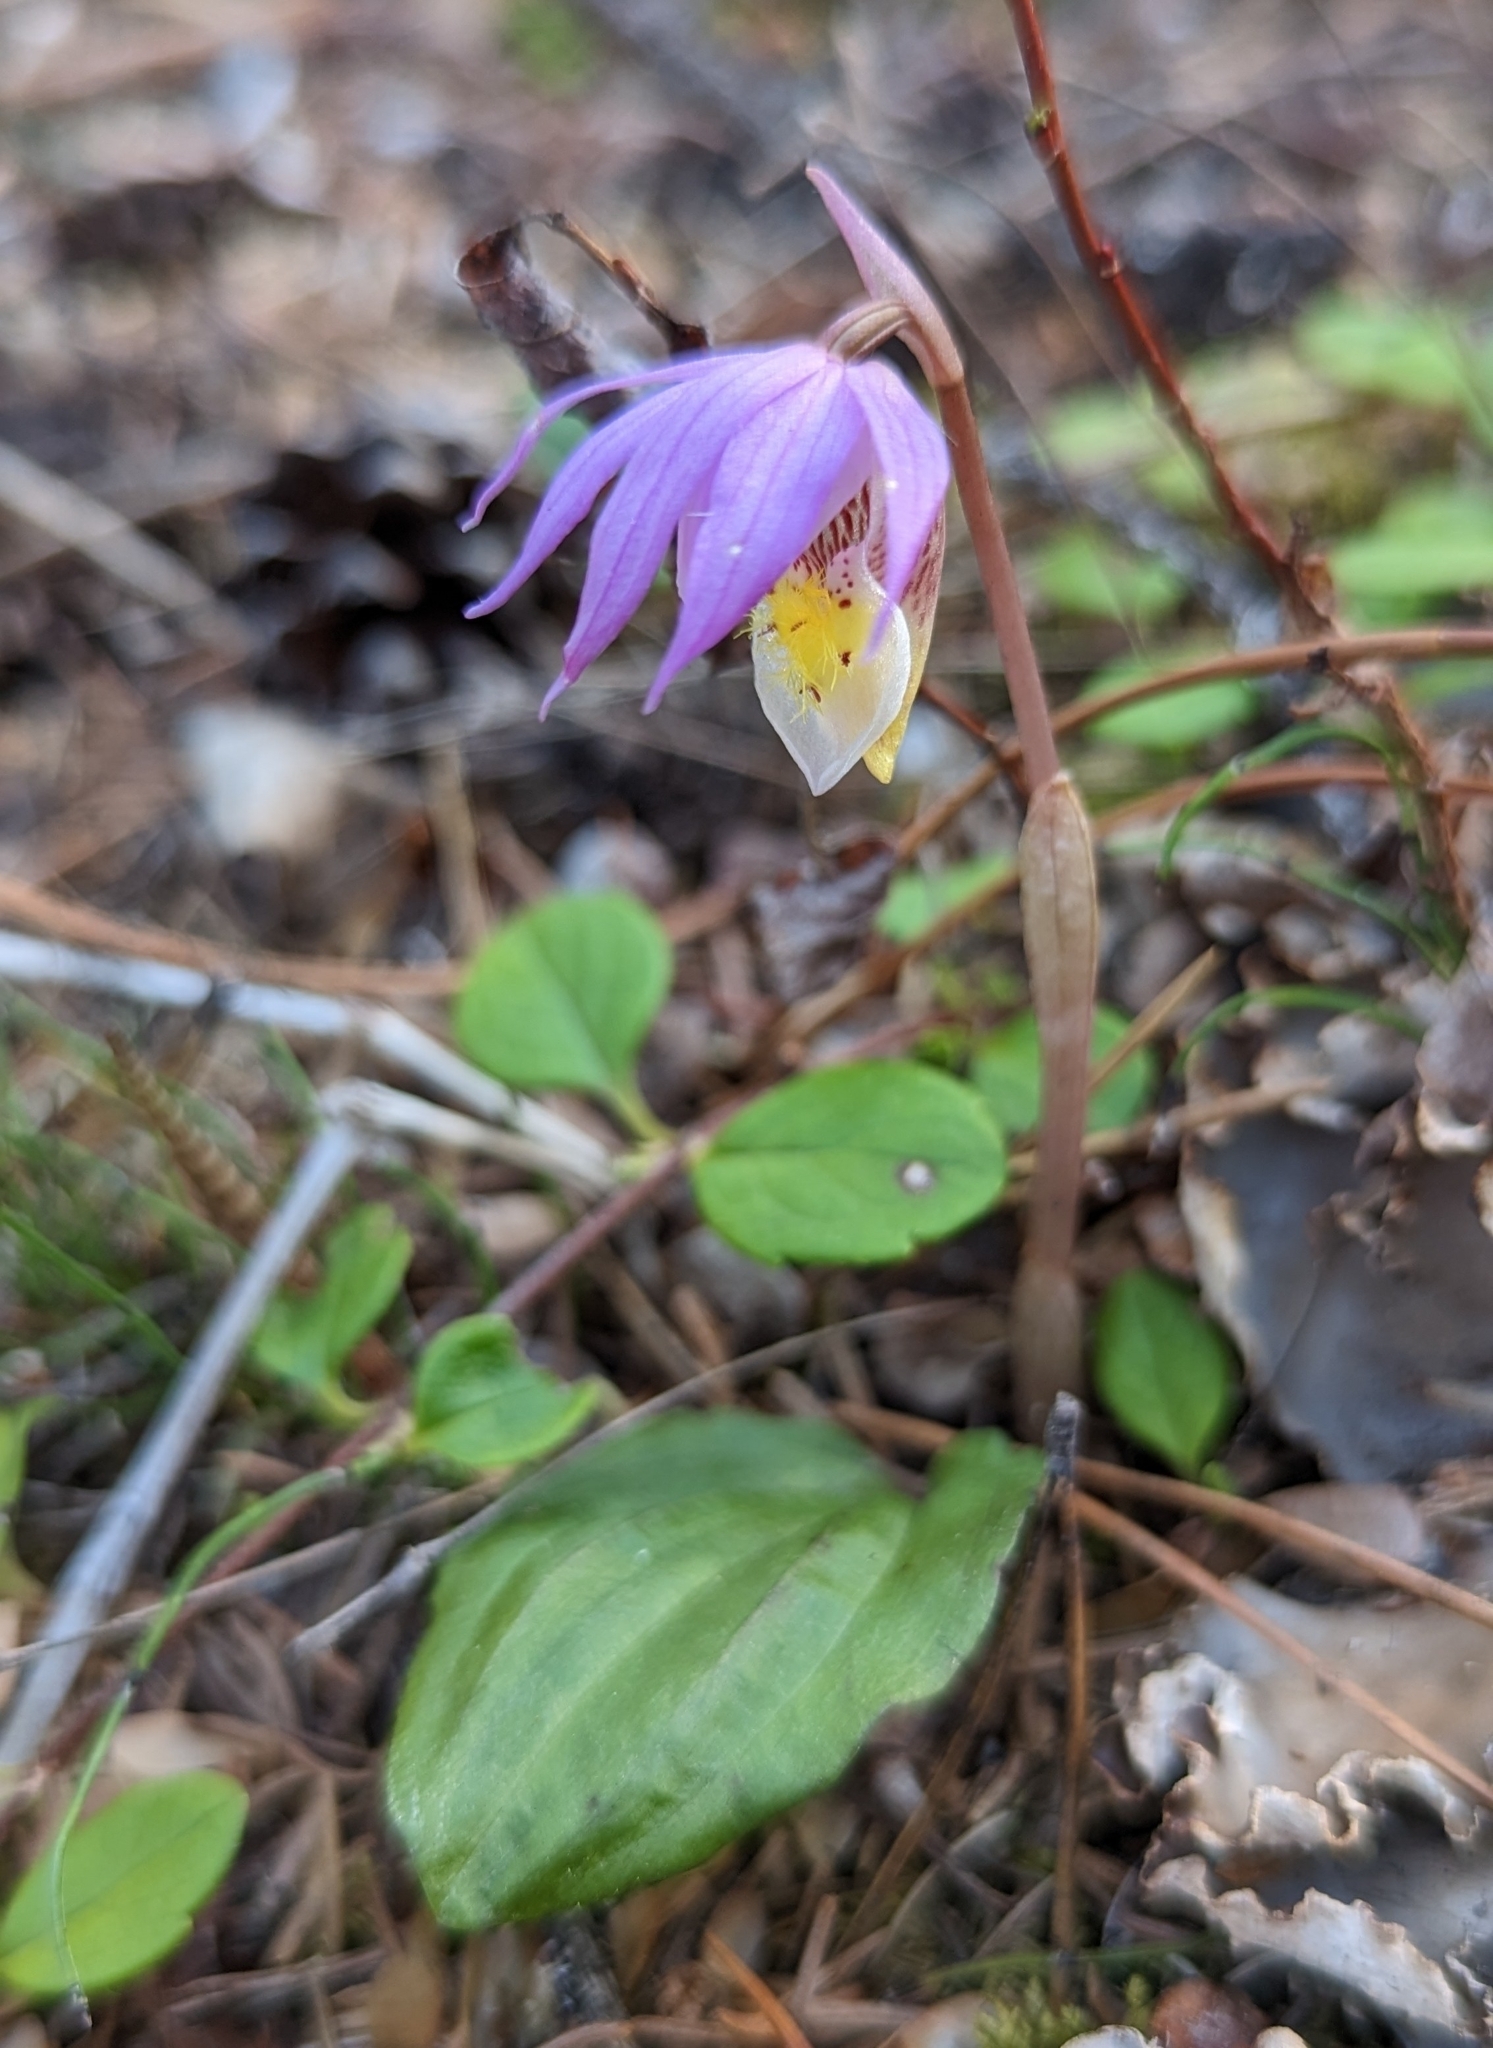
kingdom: Plantae
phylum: Tracheophyta
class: Liliopsida
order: Asparagales
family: Orchidaceae
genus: Calypso
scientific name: Calypso bulbosa
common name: Calypso
